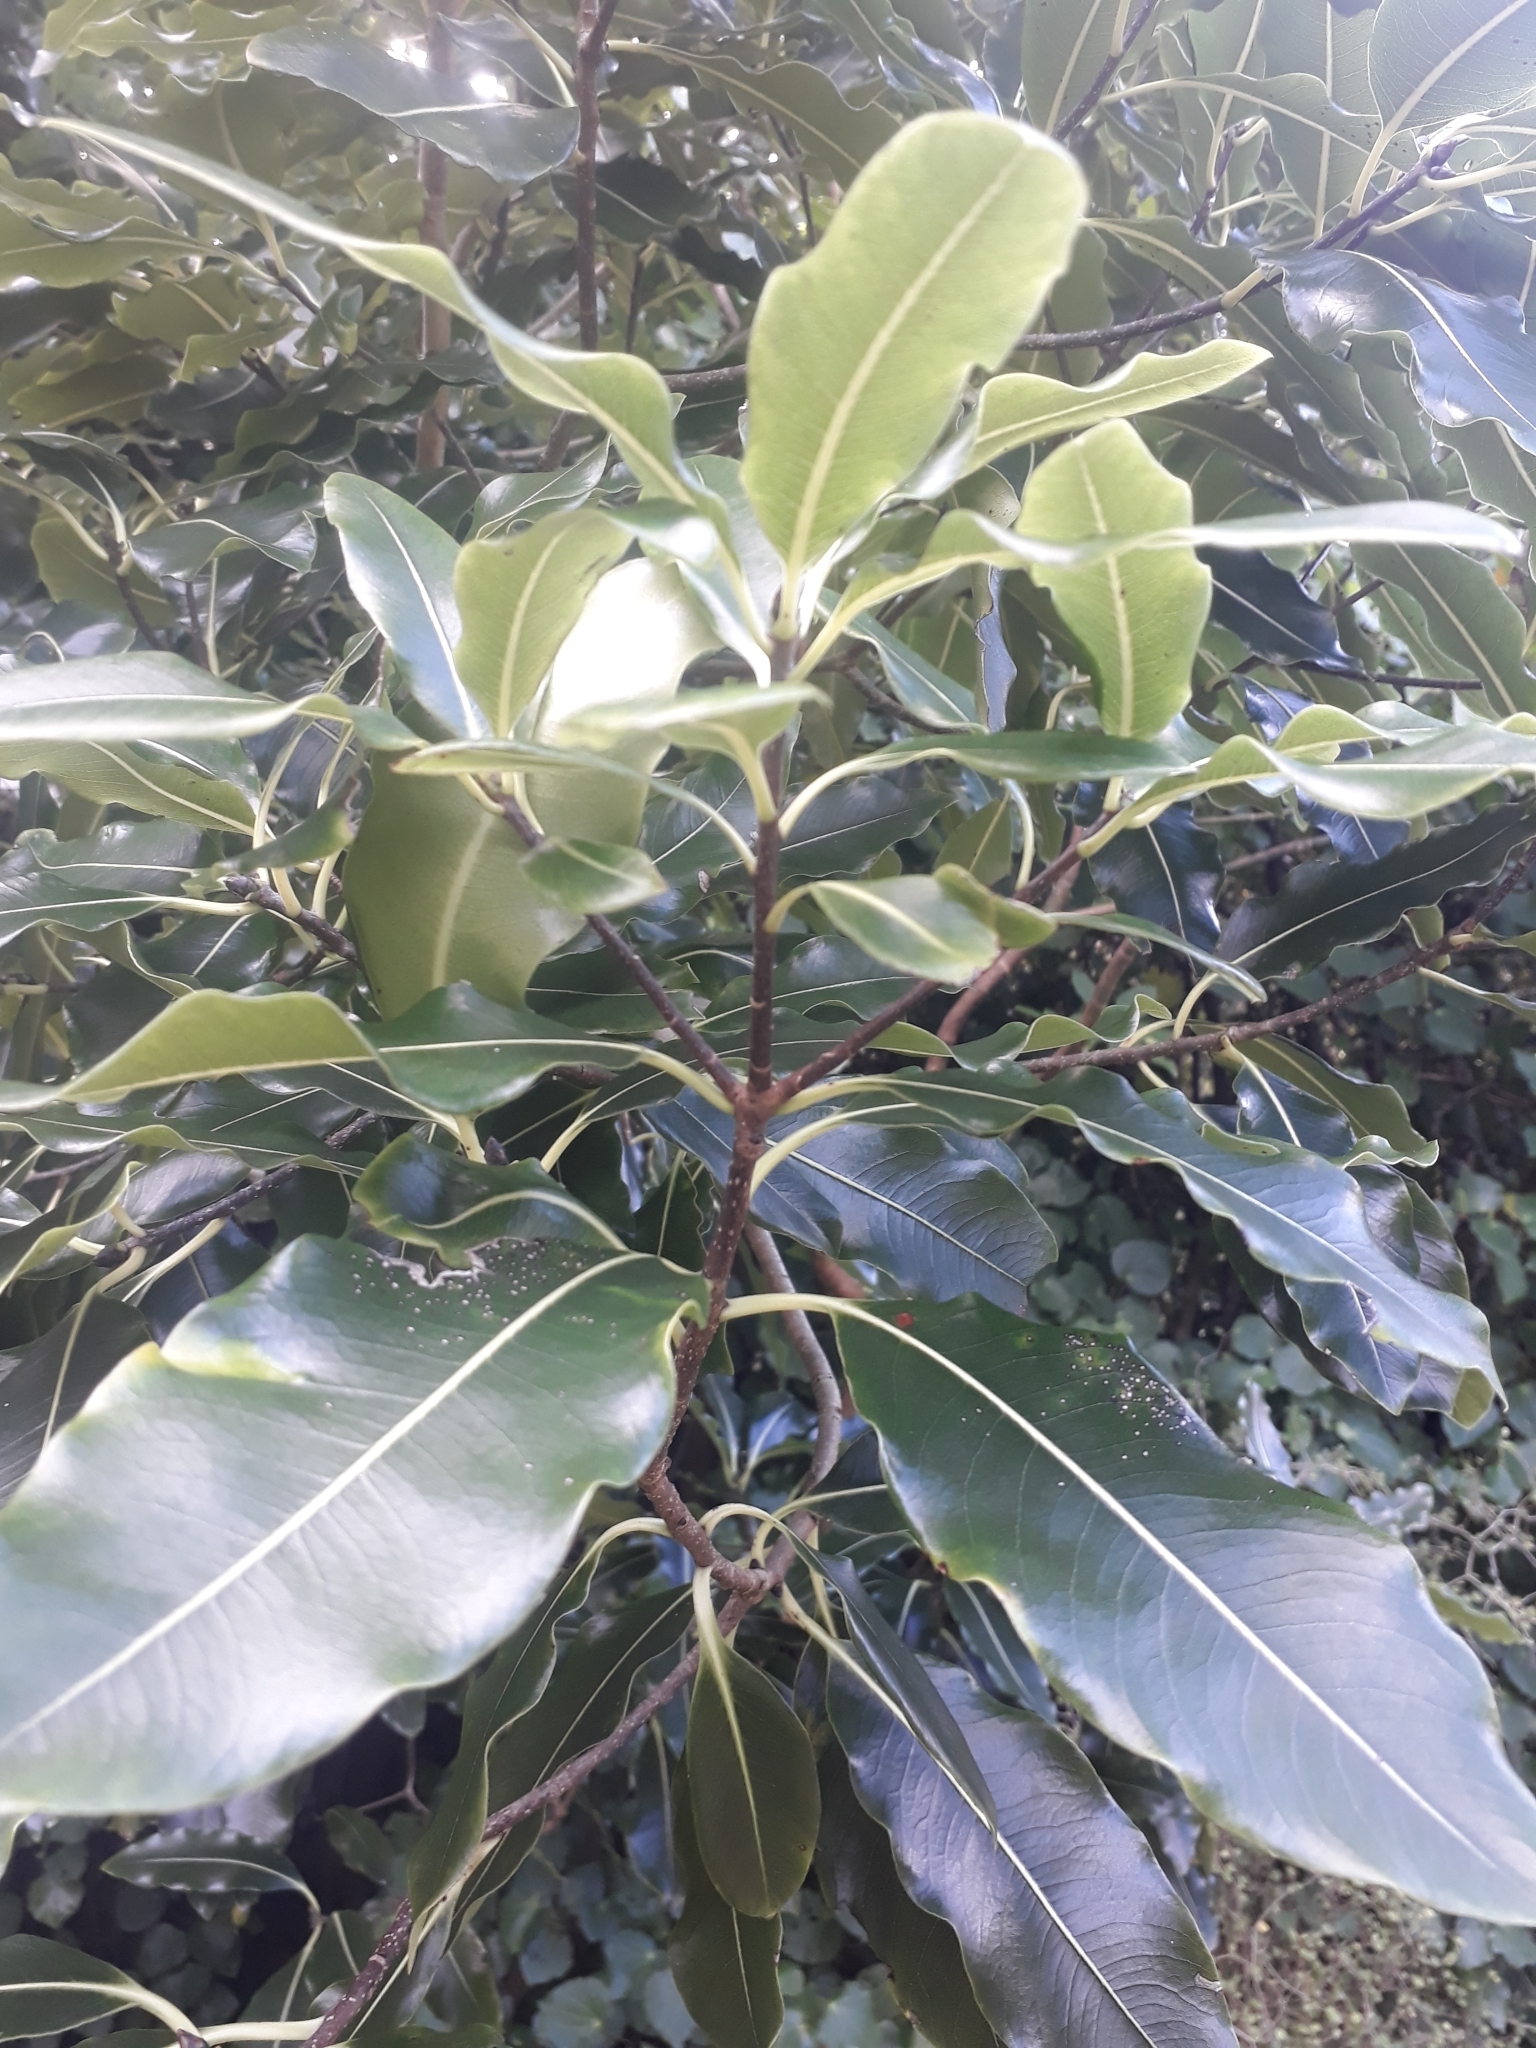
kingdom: Plantae
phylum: Tracheophyta
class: Magnoliopsida
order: Apiales
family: Pittosporaceae
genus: Pittosporum
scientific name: Pittosporum eugenioides
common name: Lemonwood
